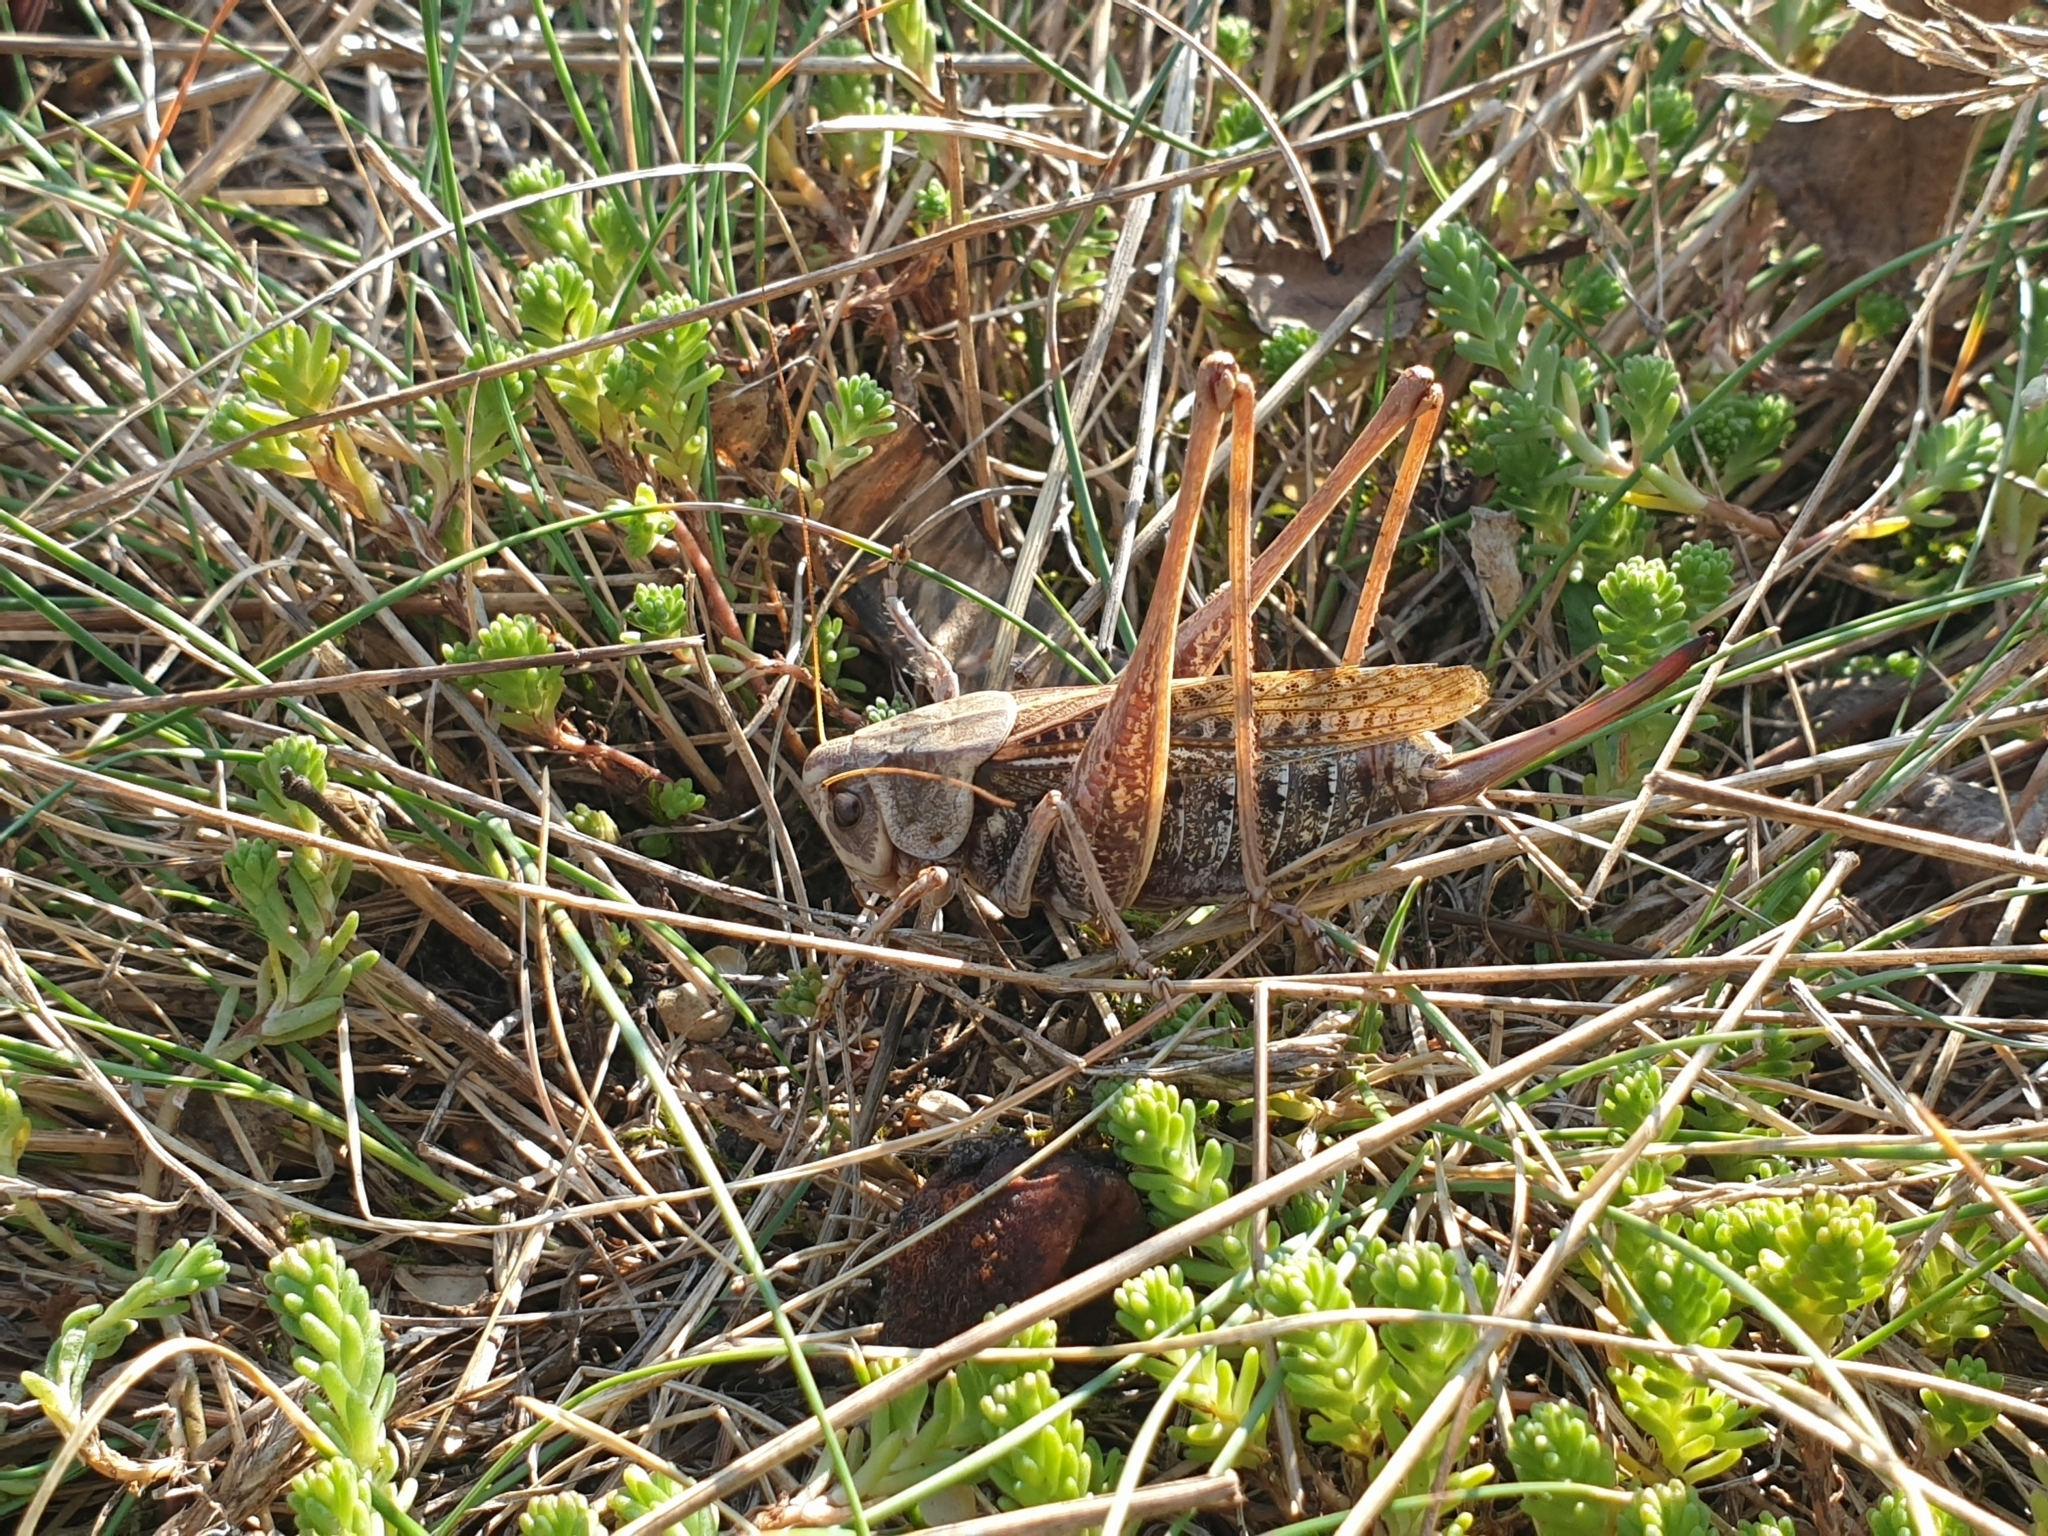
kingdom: Animalia
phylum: Arthropoda
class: Insecta
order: Orthoptera
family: Tettigoniidae
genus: Decticus
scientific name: Decticus verrucivorus
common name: Wart-biter
